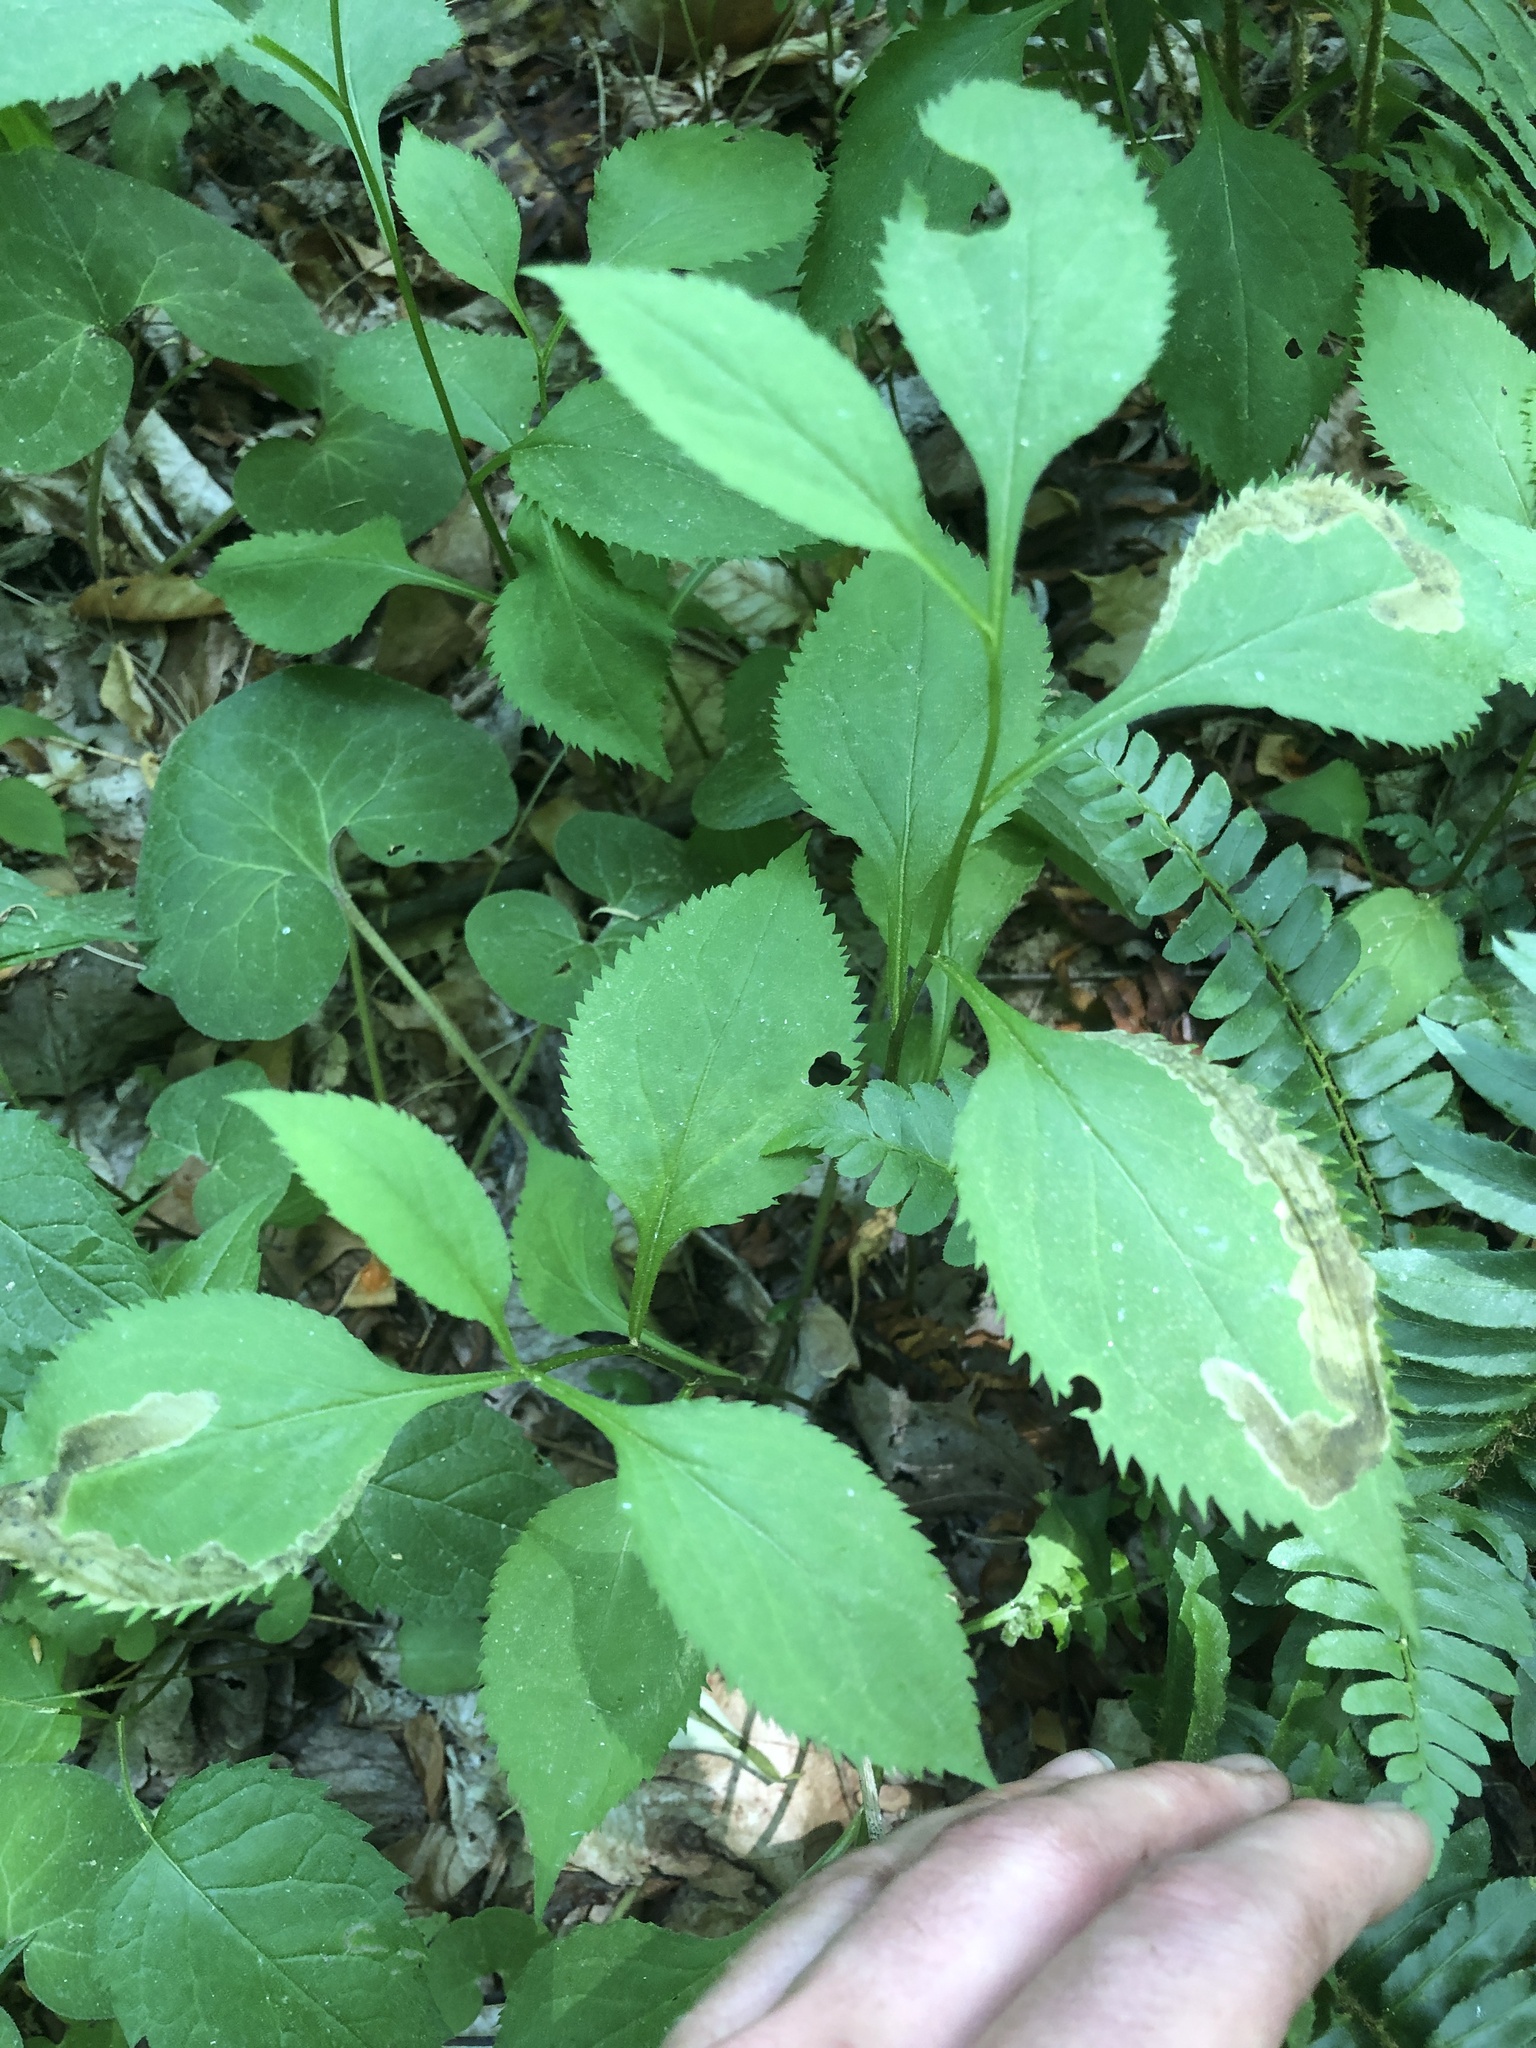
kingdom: Plantae
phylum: Tracheophyta
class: Magnoliopsida
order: Asterales
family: Asteraceae
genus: Solidago
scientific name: Solidago flexicaulis
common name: Zig-zag goldenrod
